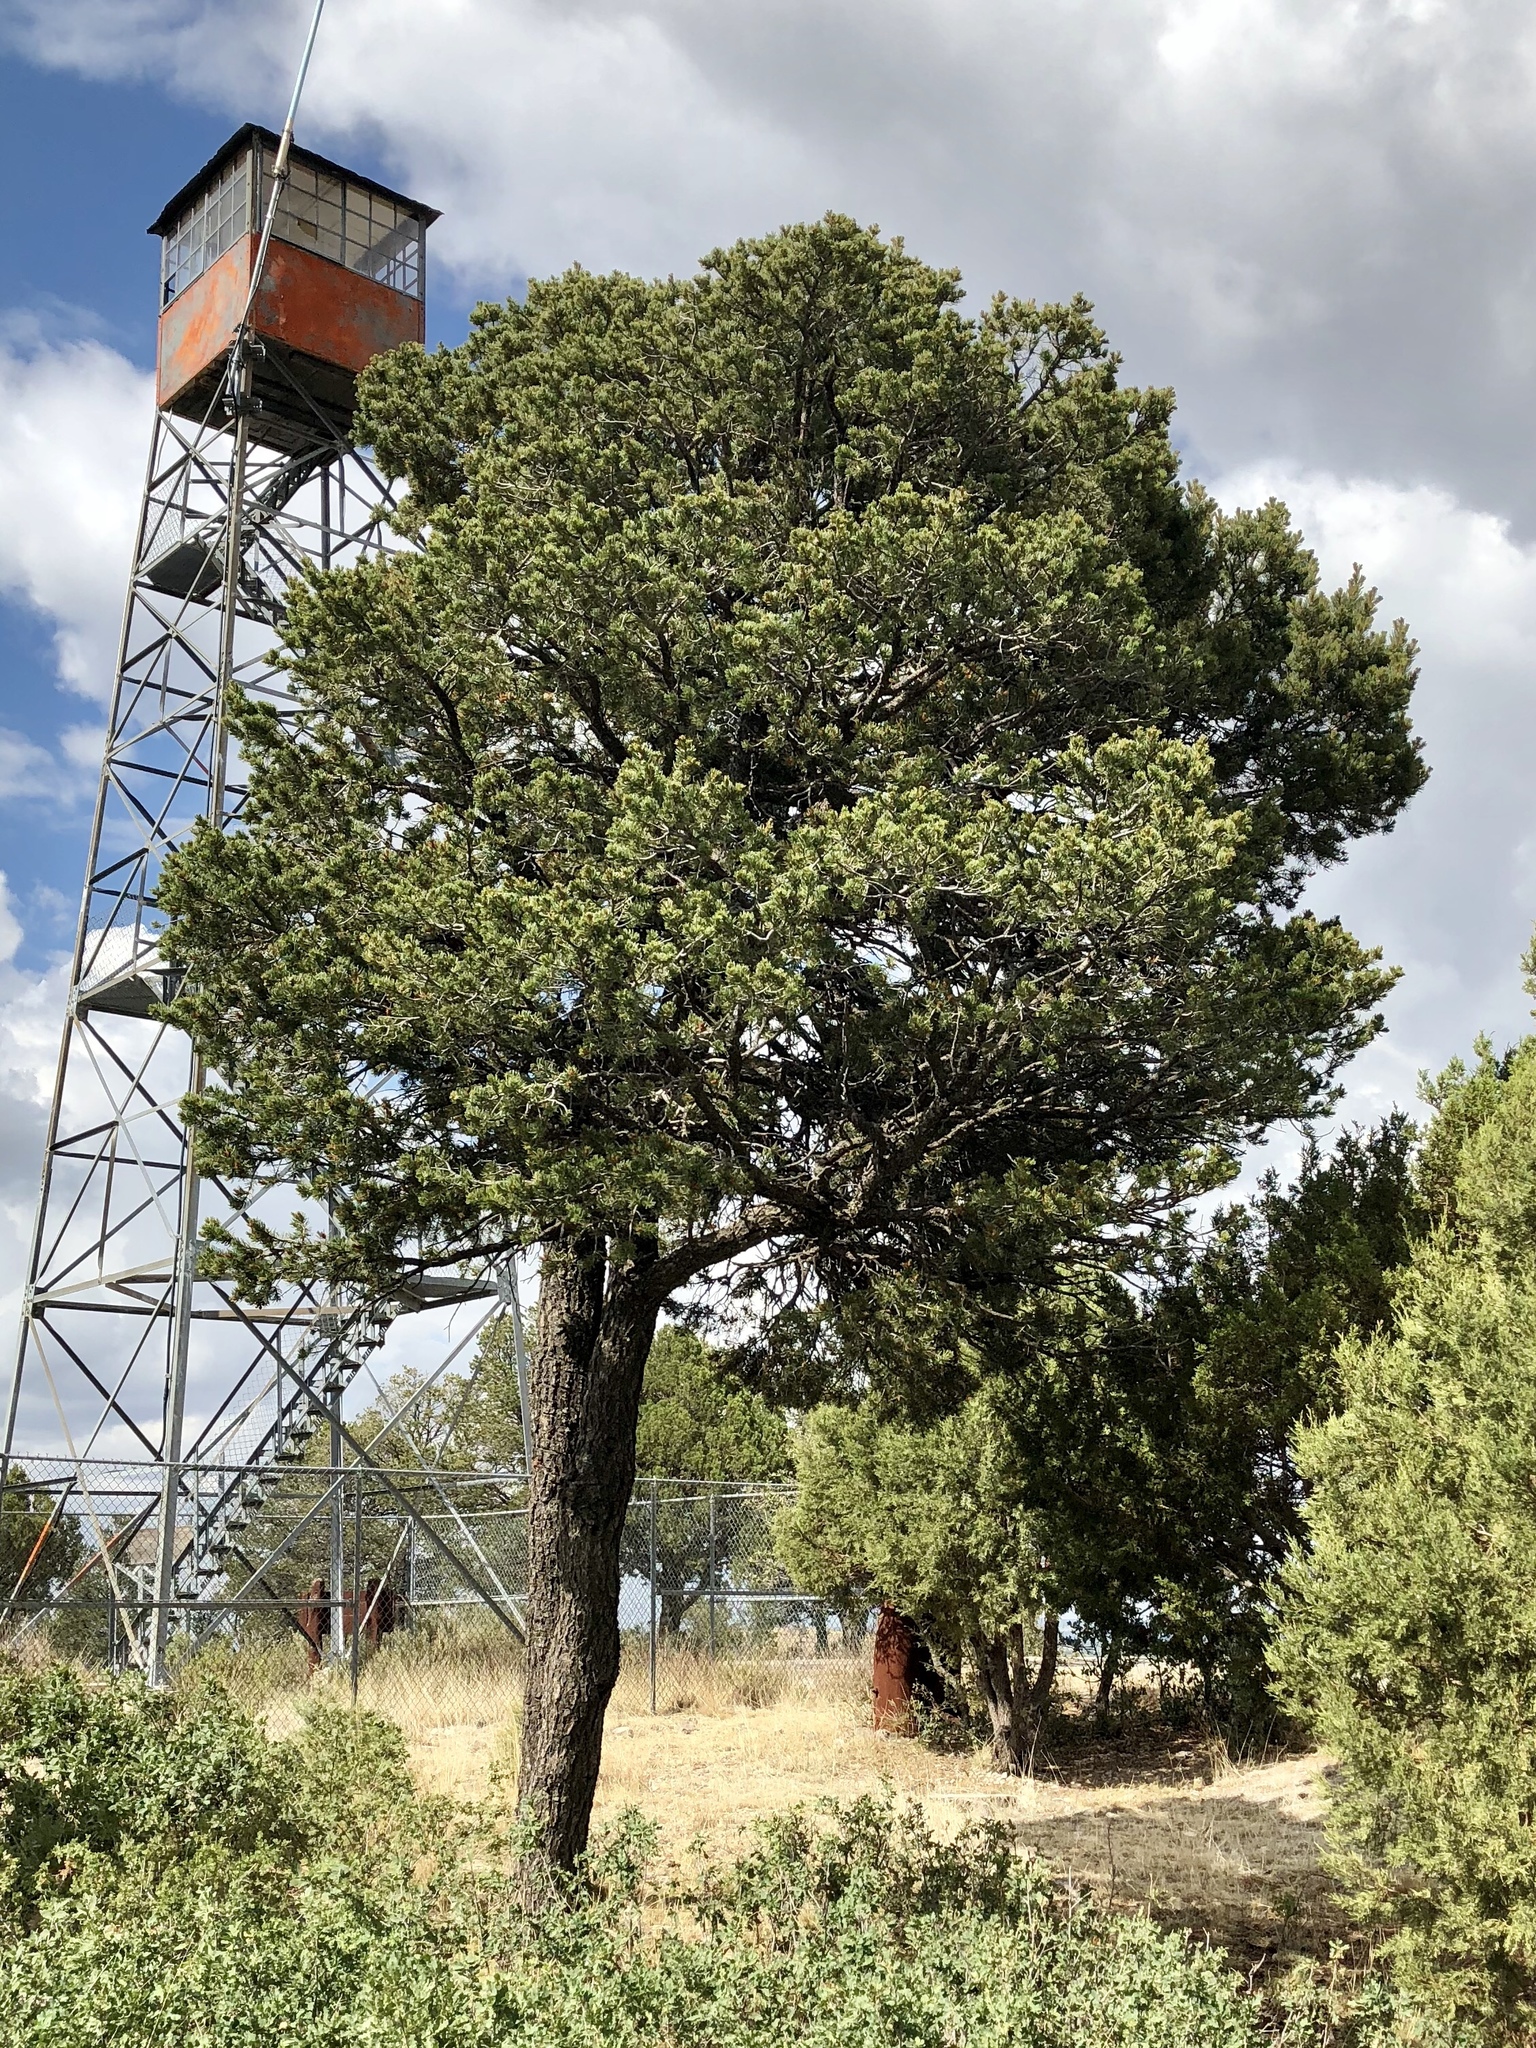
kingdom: Plantae
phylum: Tracheophyta
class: Pinopsida
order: Pinales
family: Pinaceae
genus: Pinus
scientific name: Pinus edulis
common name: Colorado pinyon
